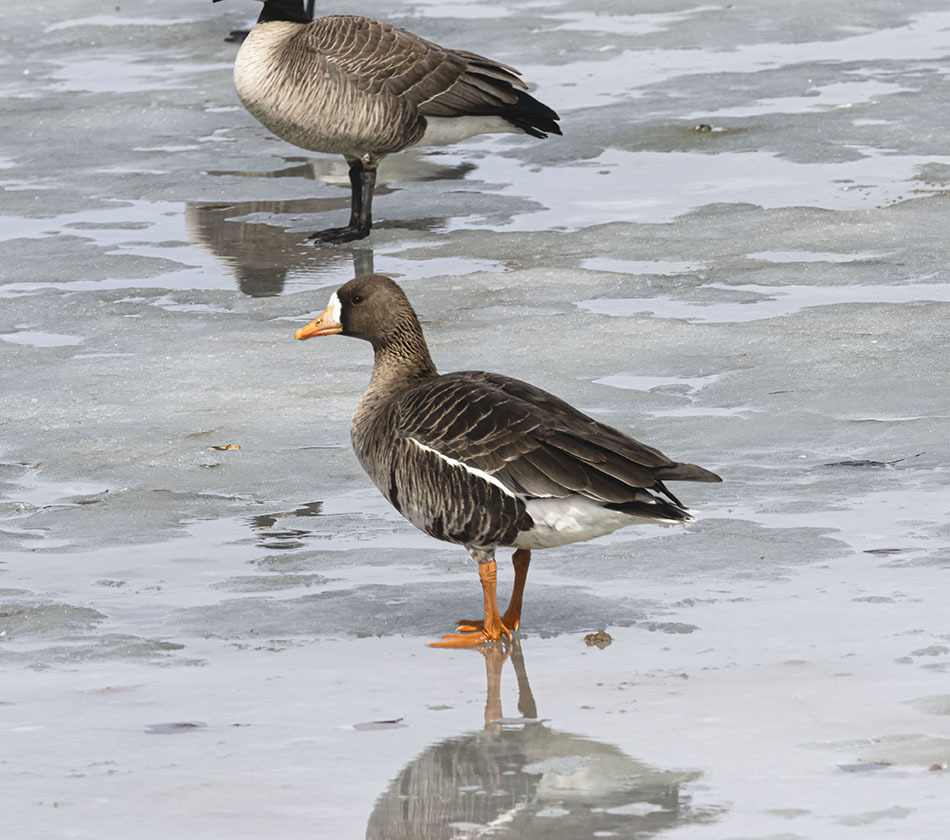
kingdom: Animalia
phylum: Chordata
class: Aves
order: Anseriformes
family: Anatidae
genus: Anser
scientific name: Anser albifrons
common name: Greater white-fronted goose
